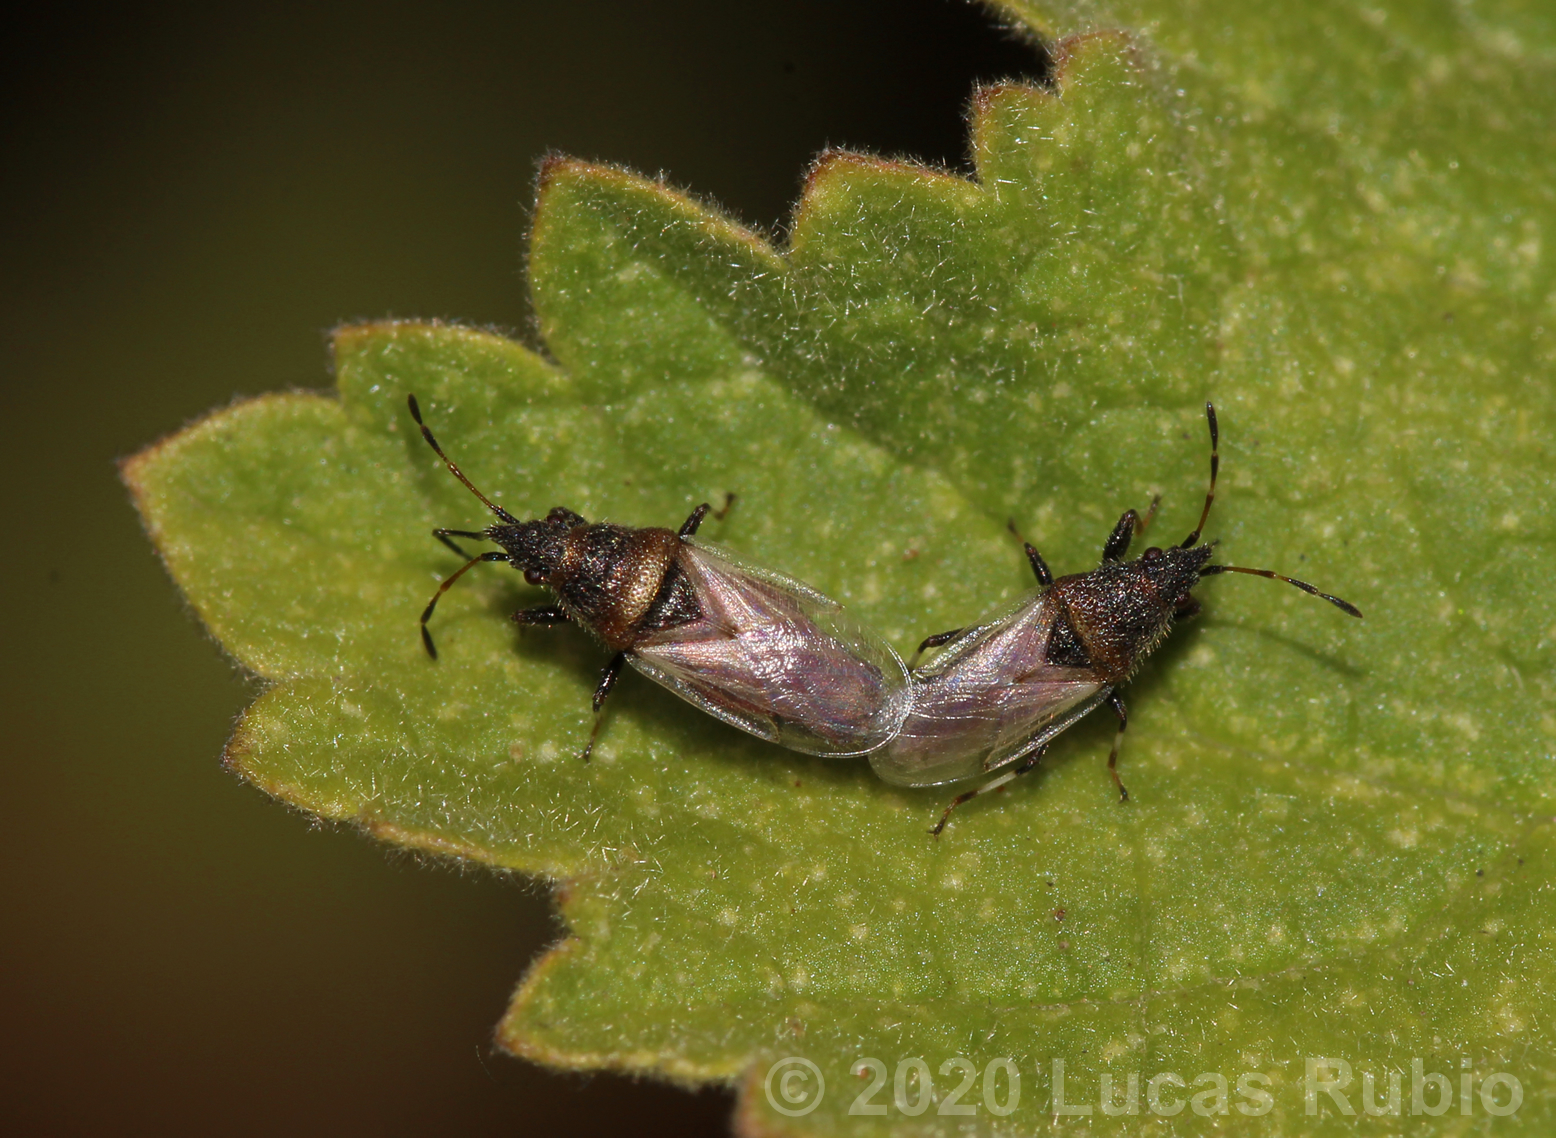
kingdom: Animalia
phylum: Arthropoda
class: Insecta
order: Hemiptera
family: Oxycarenidae
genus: Oxycarenus
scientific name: Oxycarenus hyalinipennis
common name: Cotton seed bug
